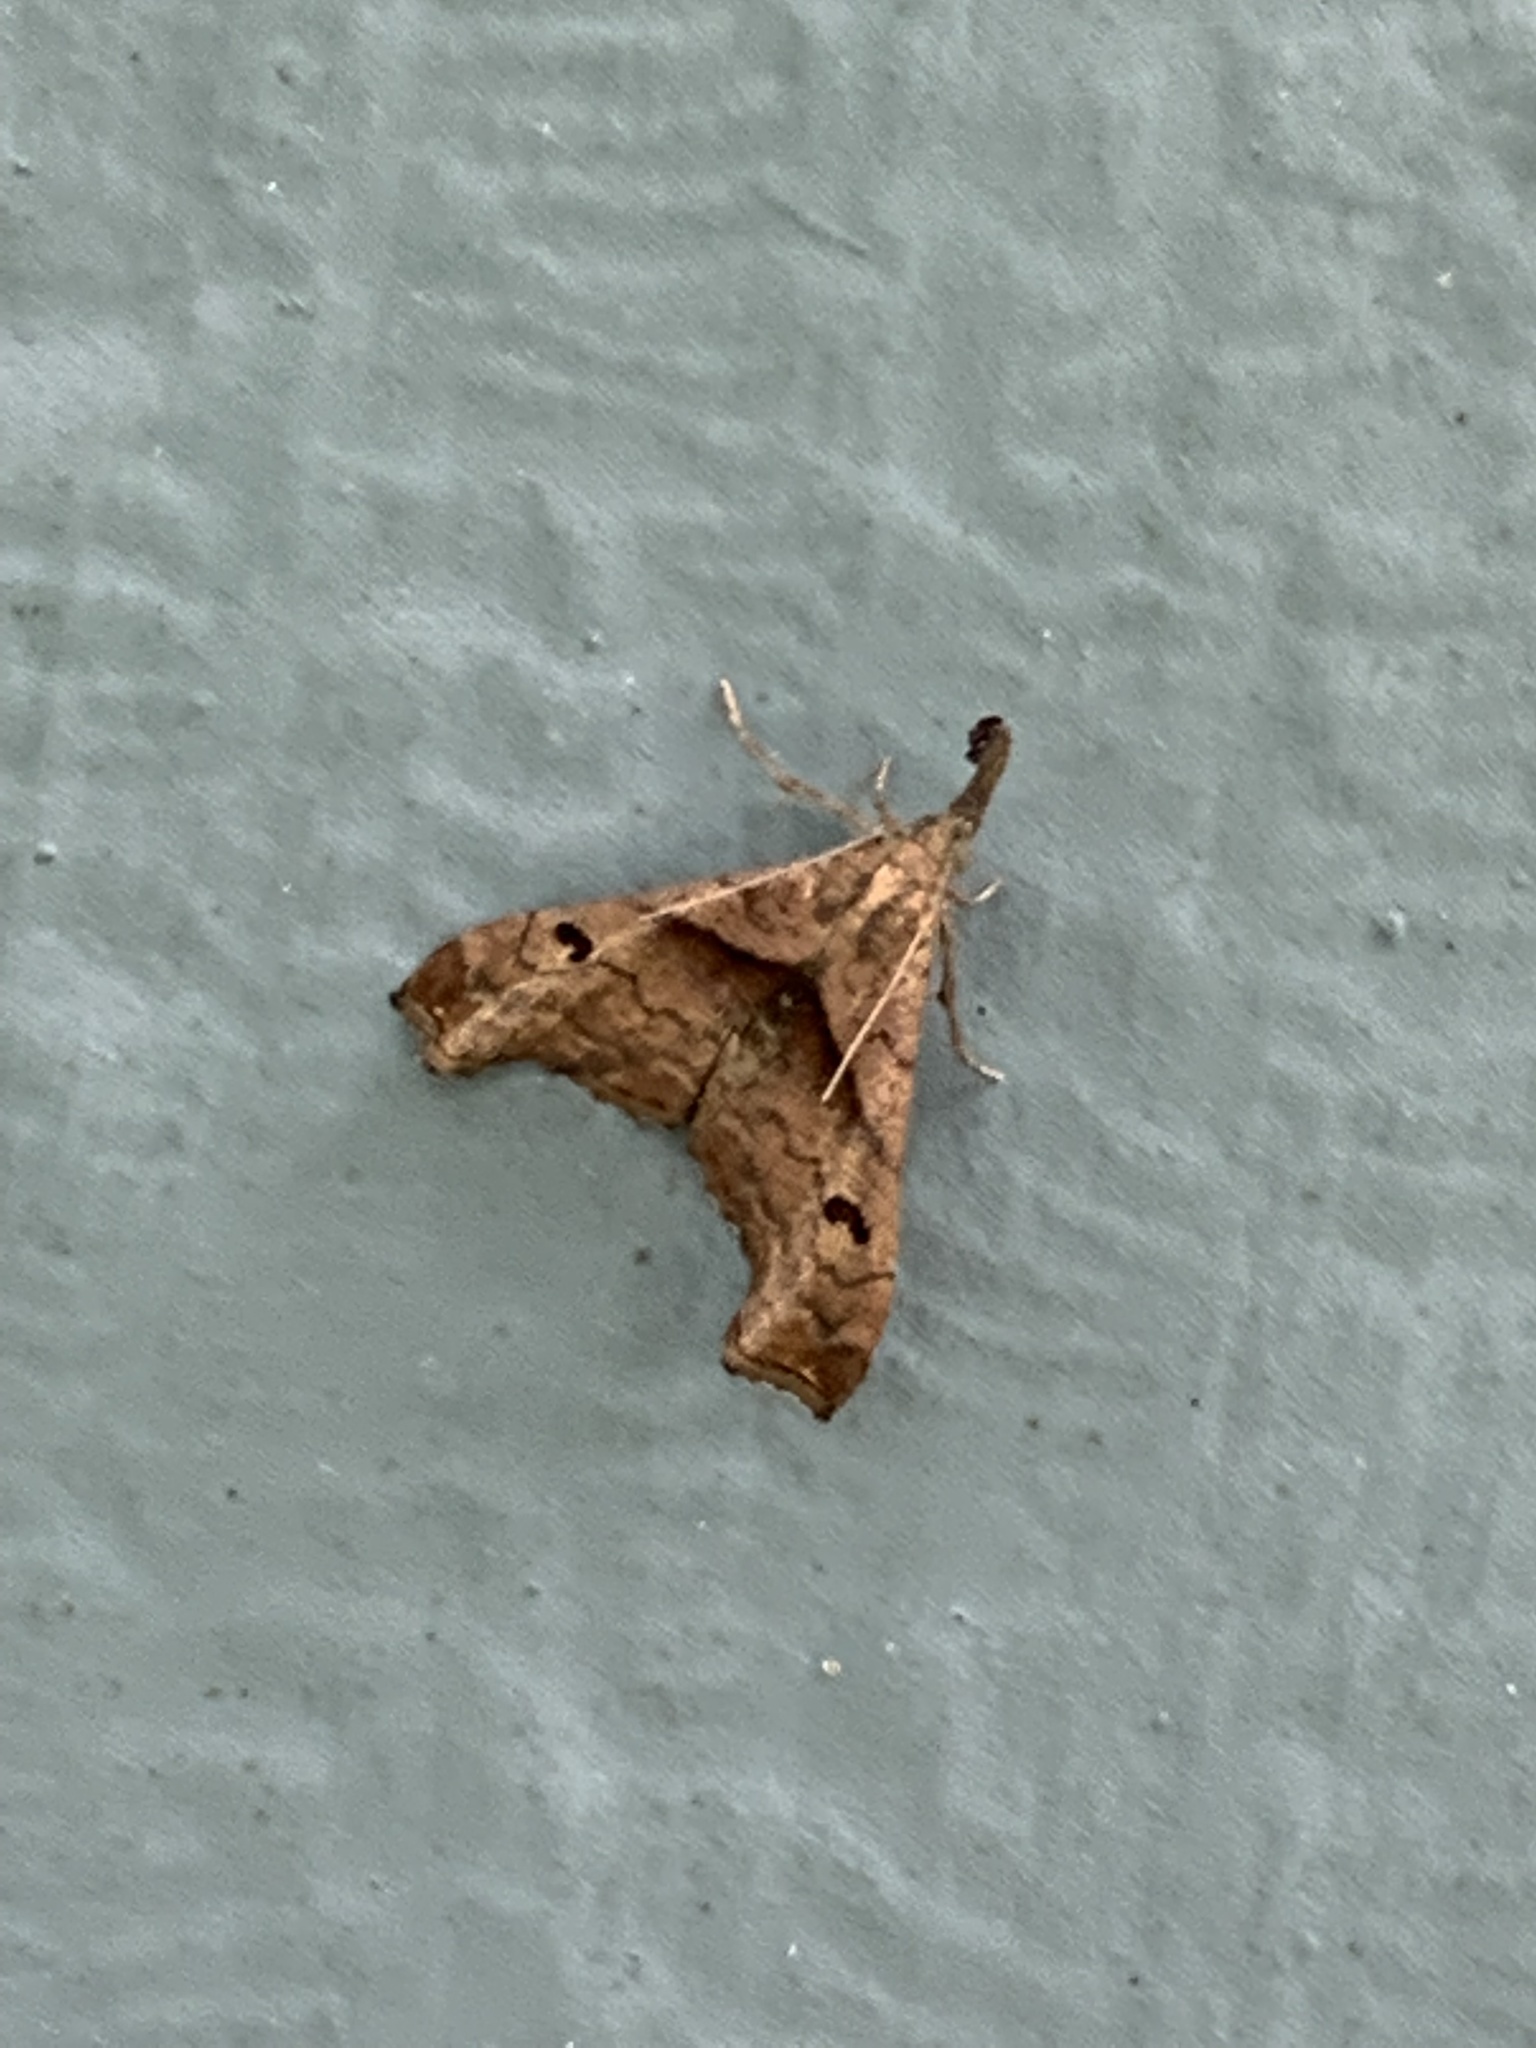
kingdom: Animalia
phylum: Arthropoda
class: Insecta
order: Lepidoptera
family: Erebidae
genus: Palthis
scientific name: Palthis angulalis
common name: Dark-spotted palthis moth
